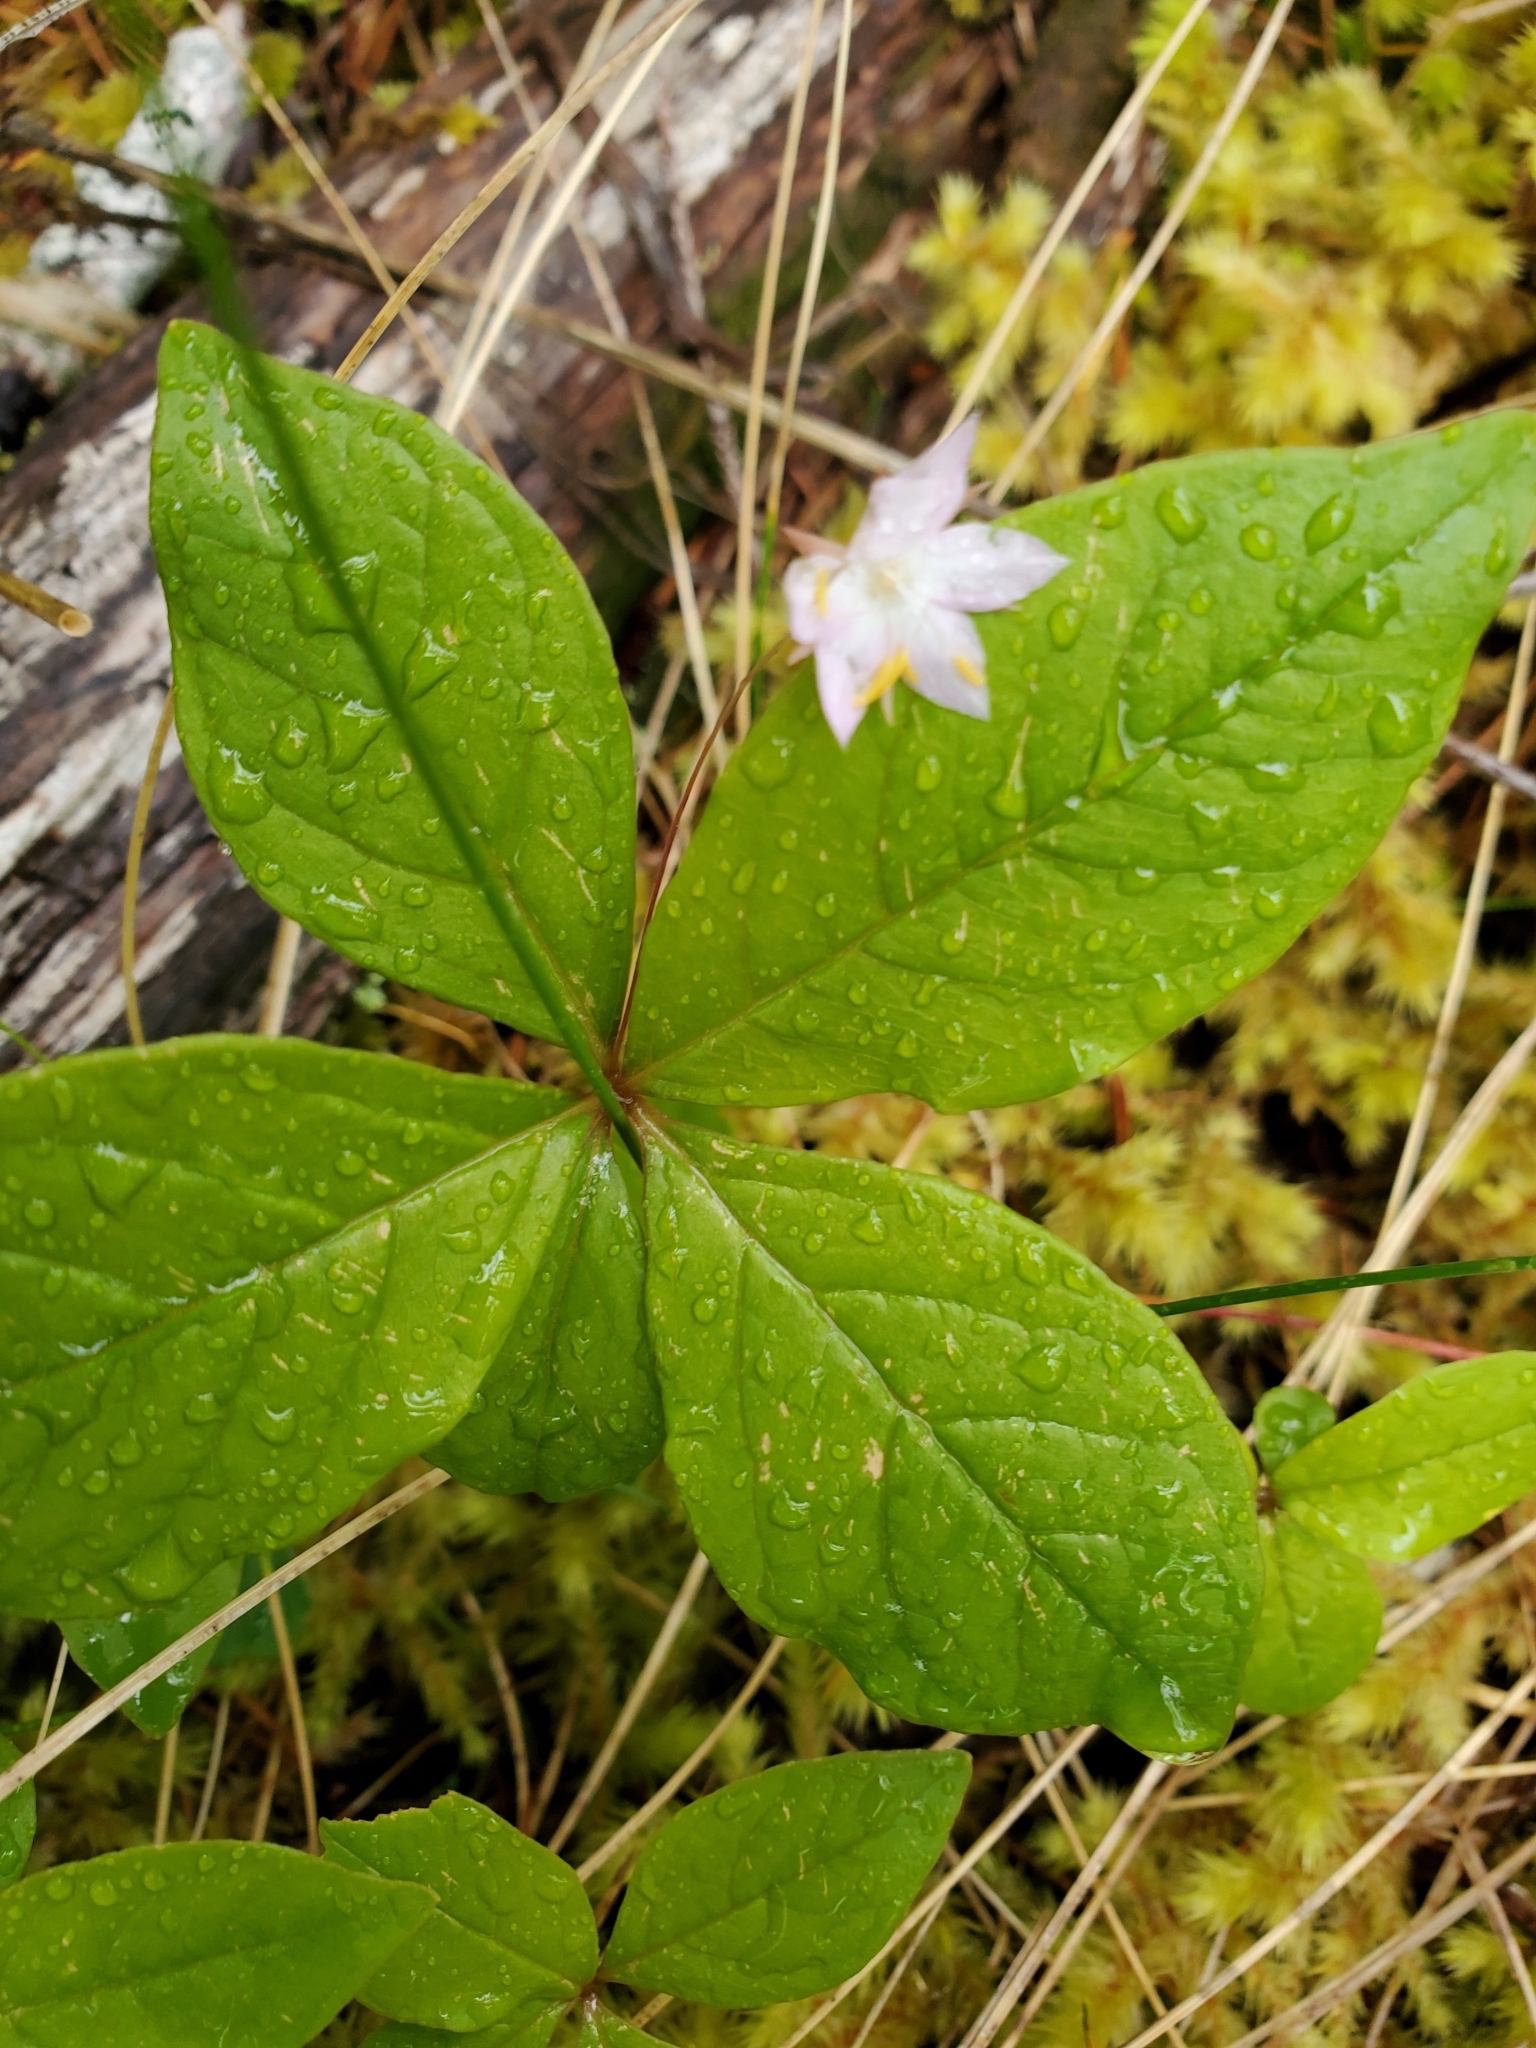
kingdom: Plantae
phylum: Tracheophyta
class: Magnoliopsida
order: Ericales
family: Primulaceae
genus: Lysimachia
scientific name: Lysimachia latifolia
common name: Pacific starflower
